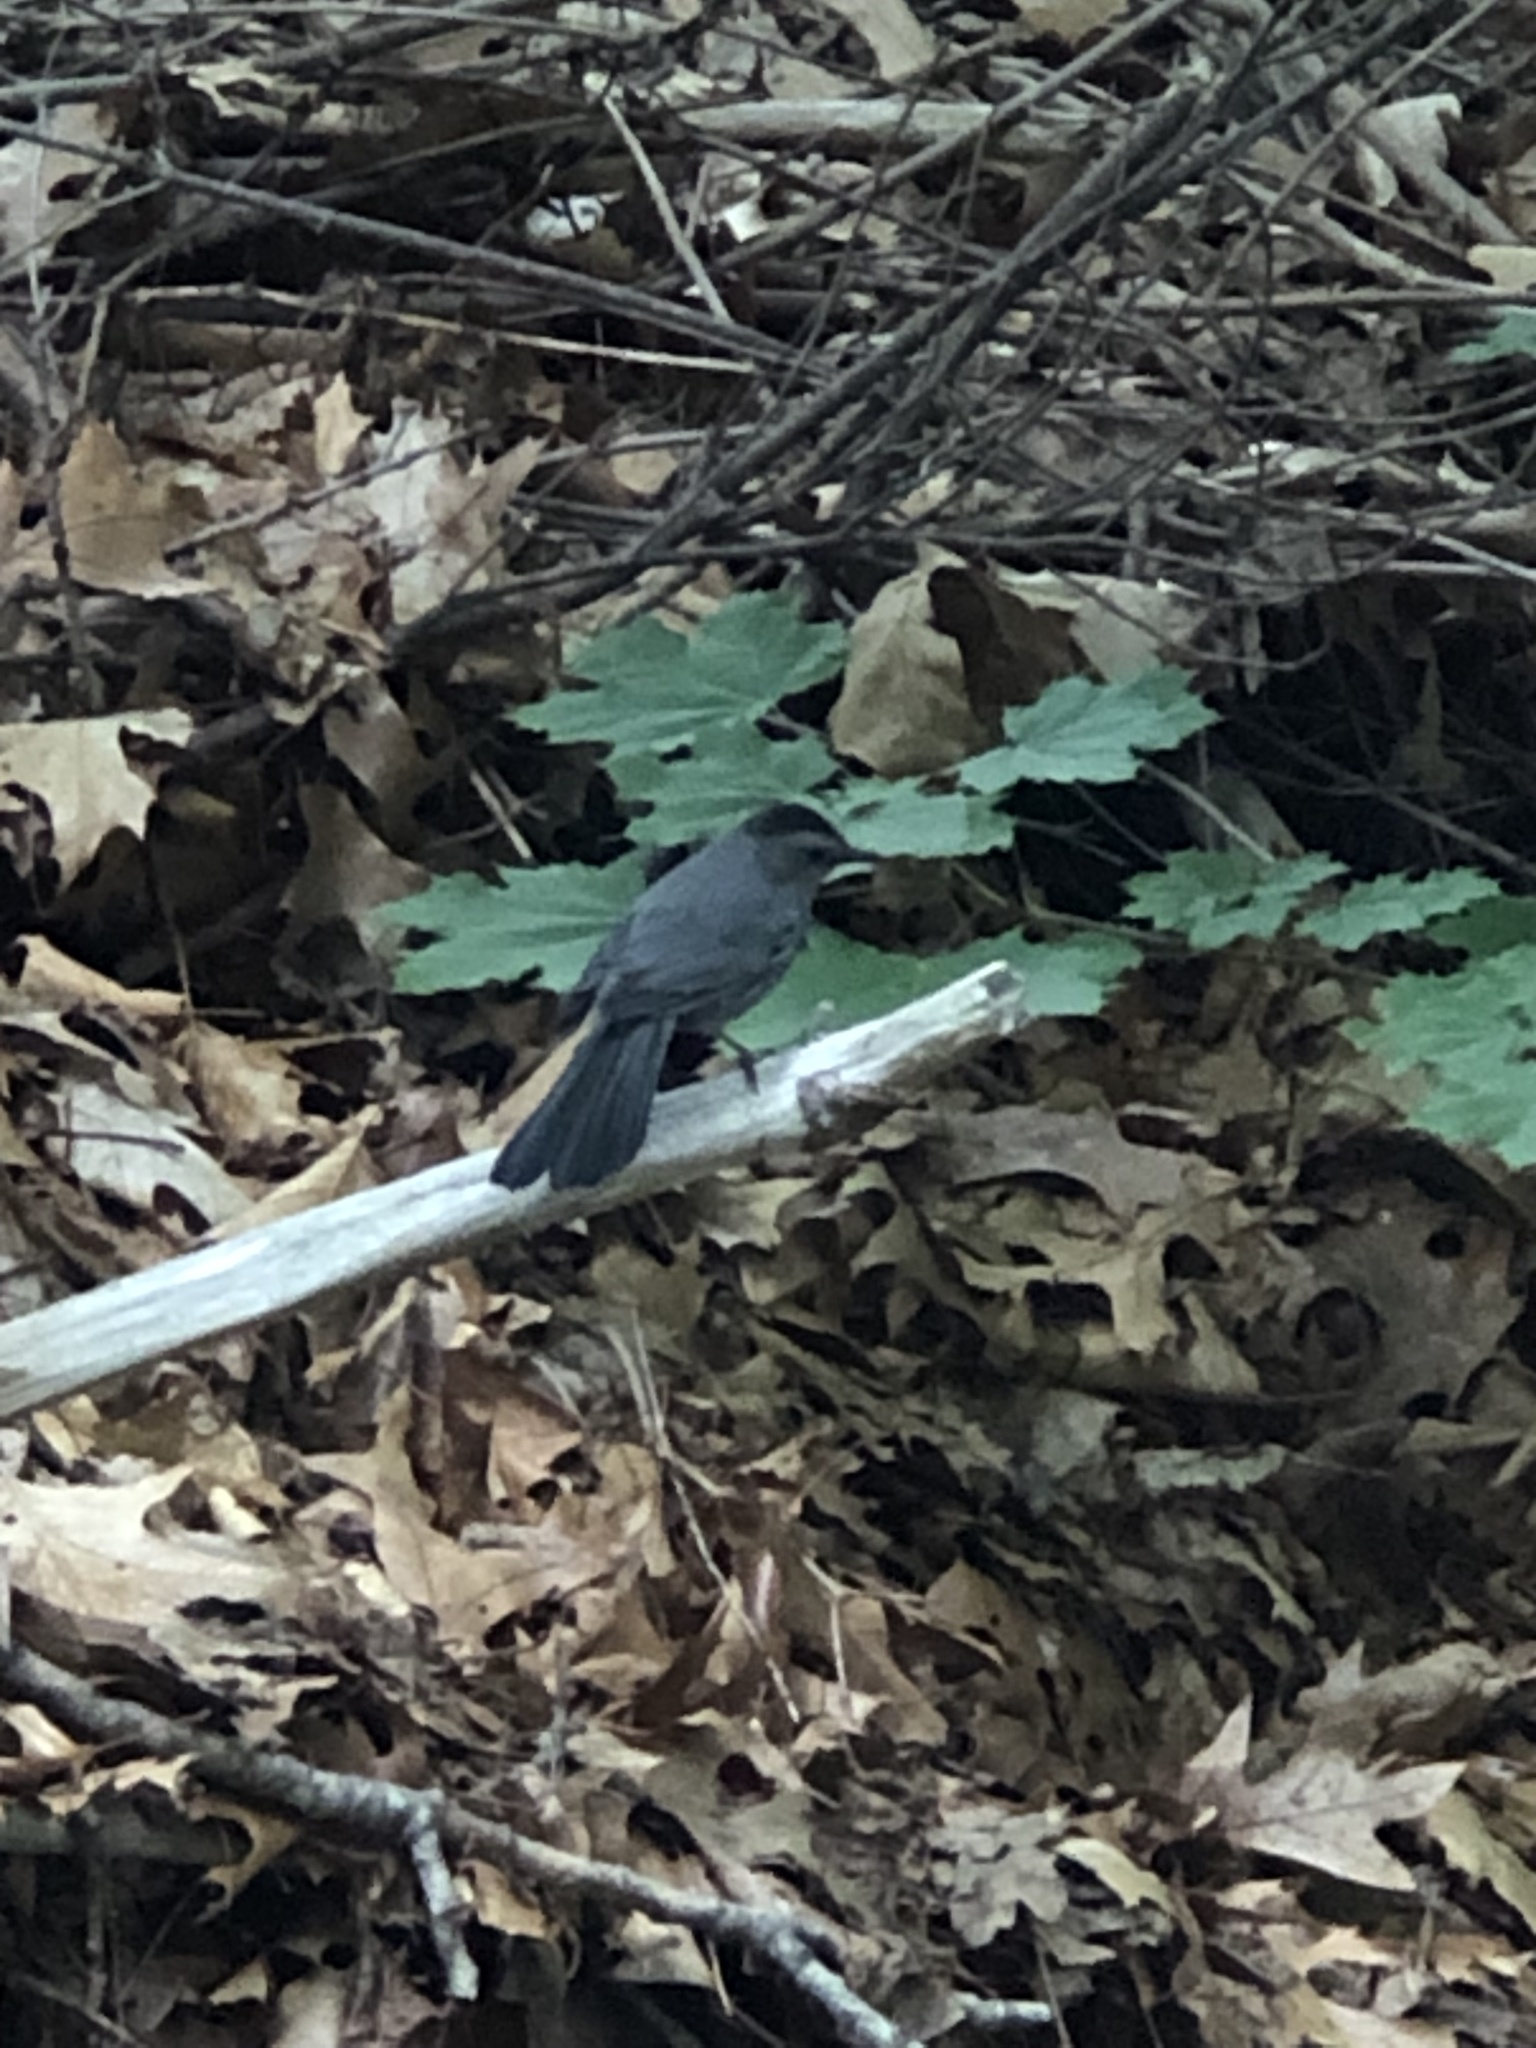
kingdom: Animalia
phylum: Chordata
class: Aves
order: Passeriformes
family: Mimidae
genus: Dumetella
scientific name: Dumetella carolinensis
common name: Gray catbird
